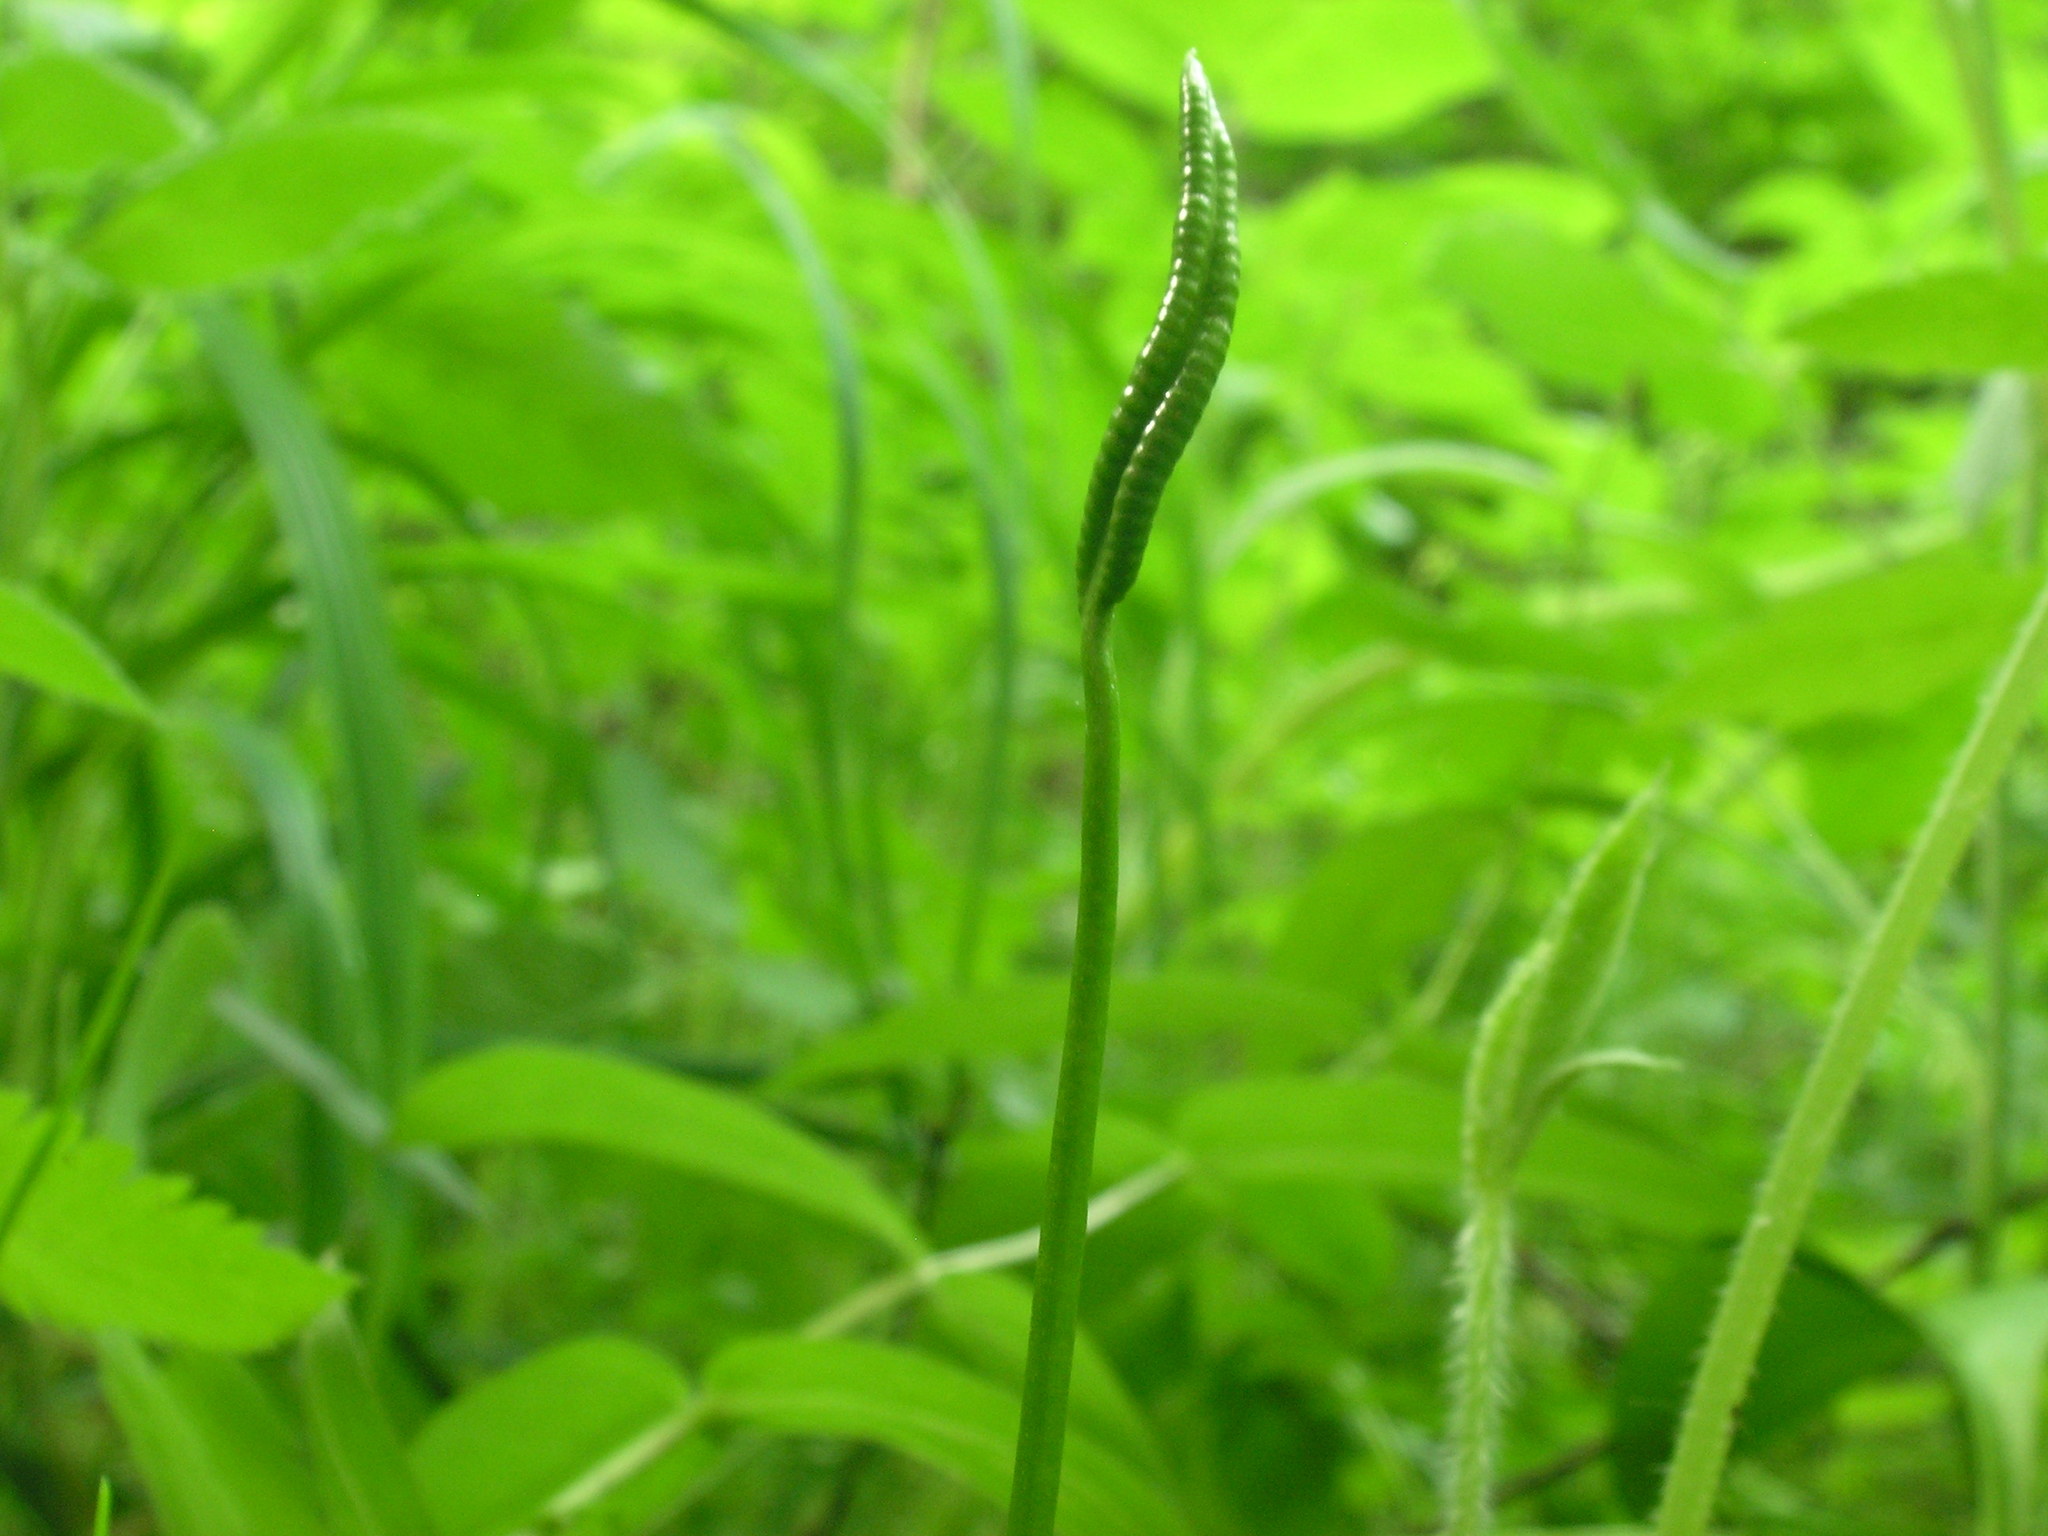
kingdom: Plantae
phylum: Tracheophyta
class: Polypodiopsida
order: Ophioglossales
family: Ophioglossaceae
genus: Ophioglossum
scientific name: Ophioglossum vulgatum
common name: Adder's-tongue
